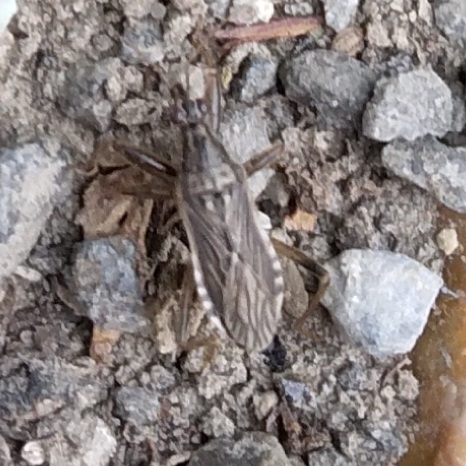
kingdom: Animalia
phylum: Arthropoda
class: Insecta
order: Hemiptera
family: Nabidae
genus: Himacerus
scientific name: Himacerus major
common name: Damsel bug
